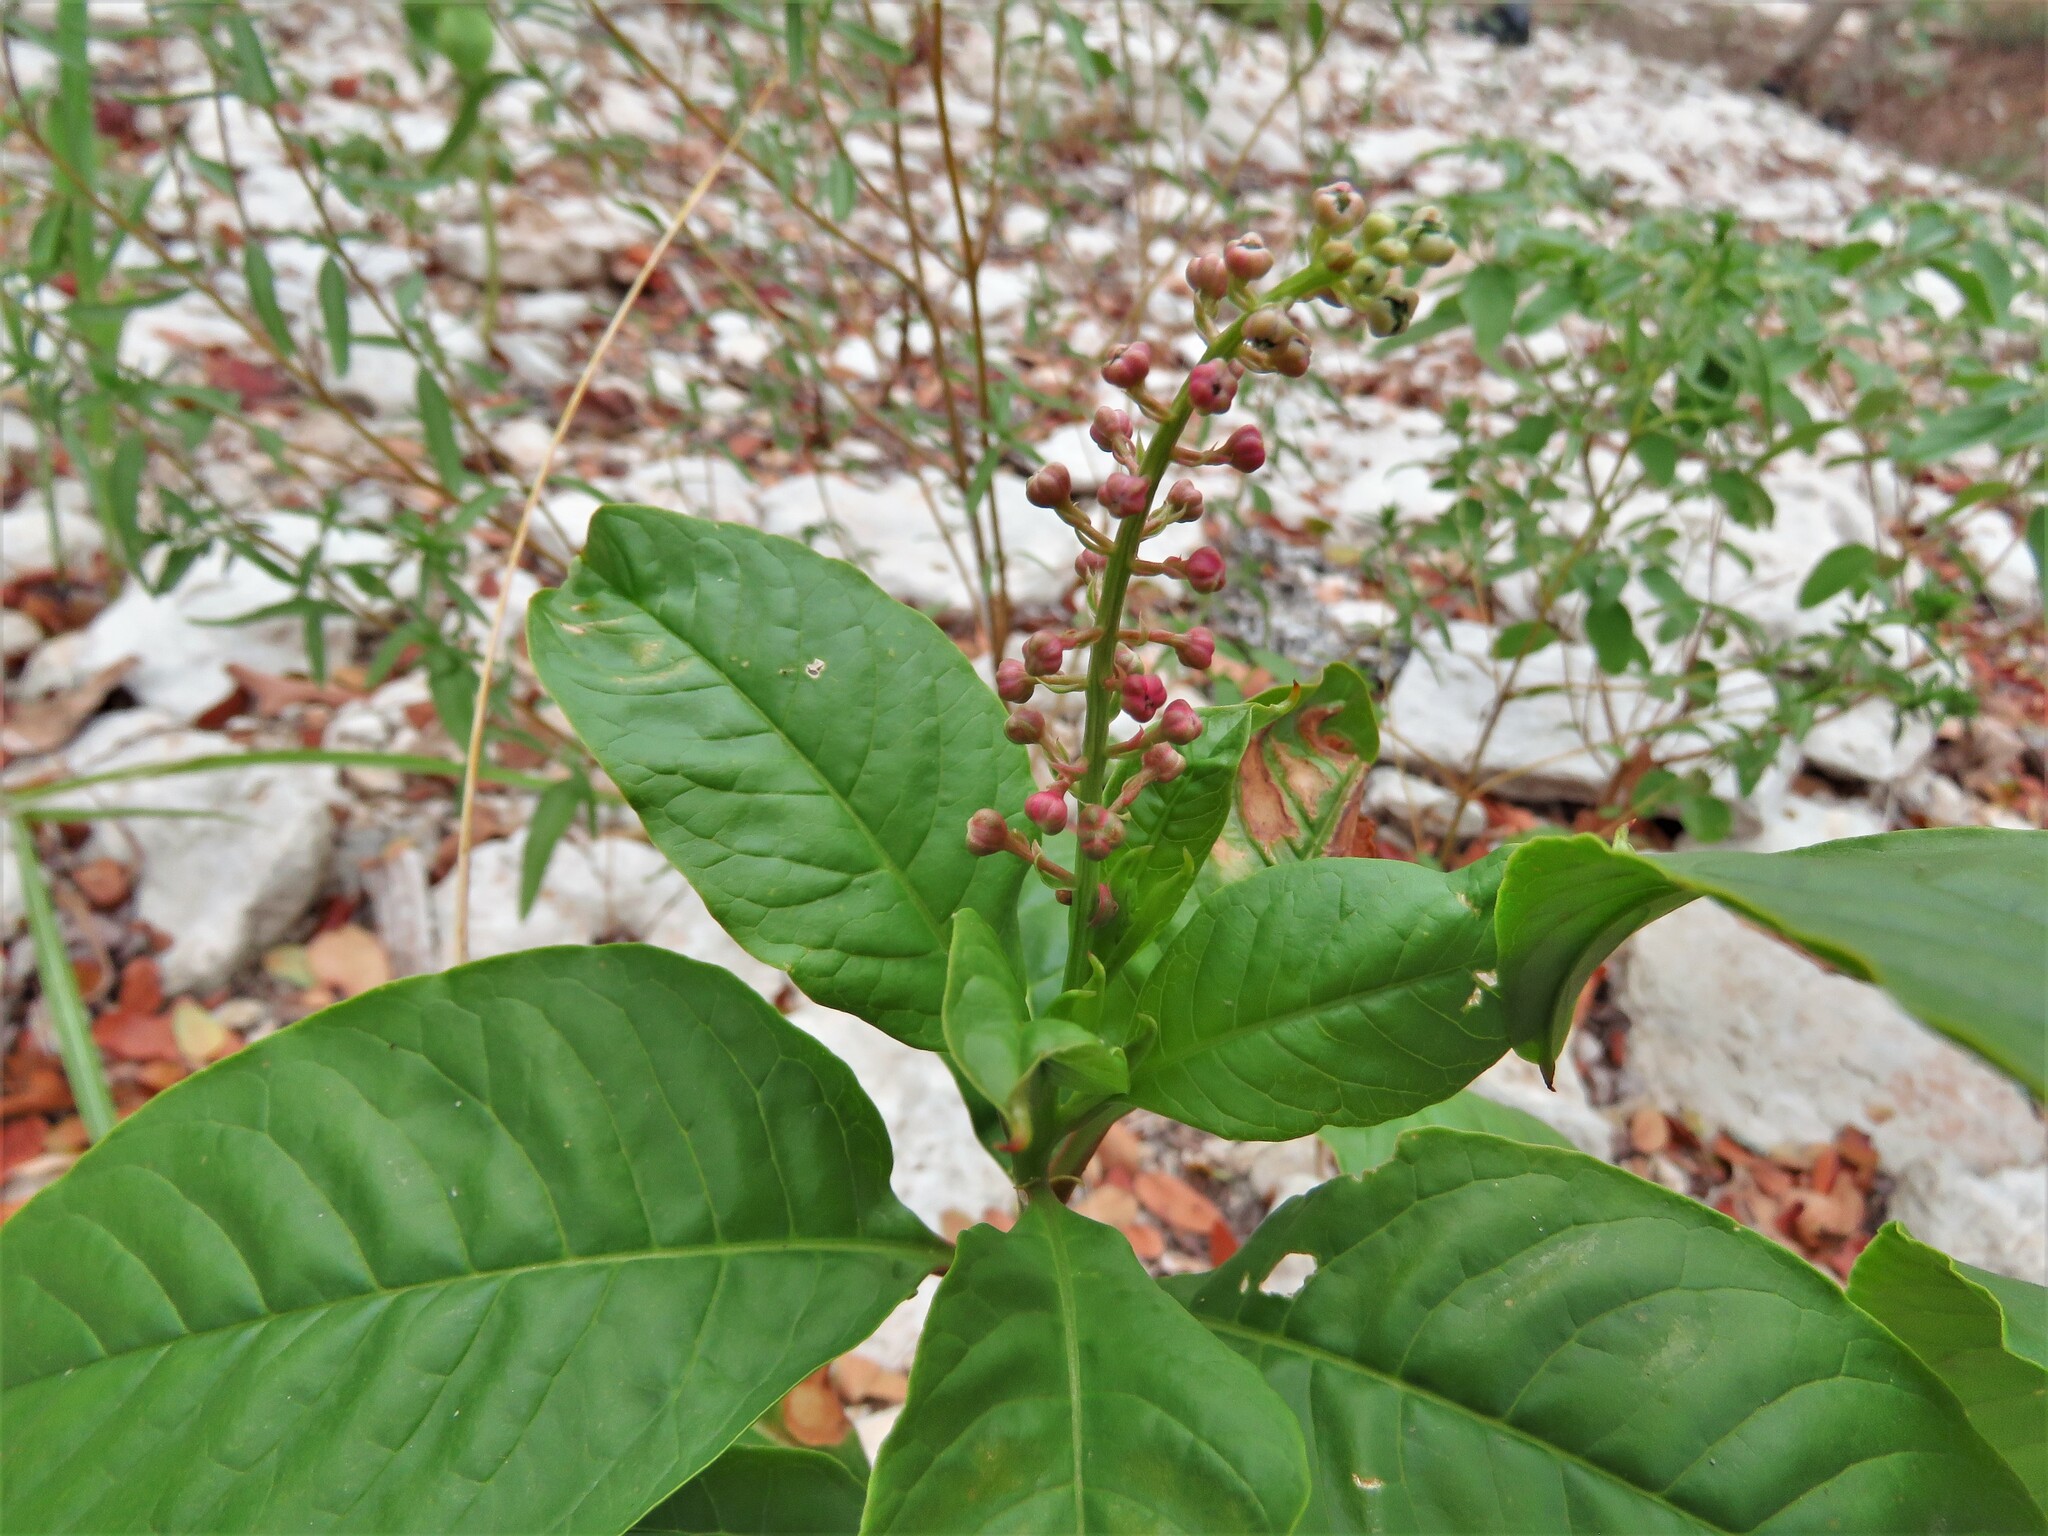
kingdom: Plantae
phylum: Tracheophyta
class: Magnoliopsida
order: Caryophyllales
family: Phytolaccaceae
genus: Rivina
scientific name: Rivina humilis
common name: Rougeplant
